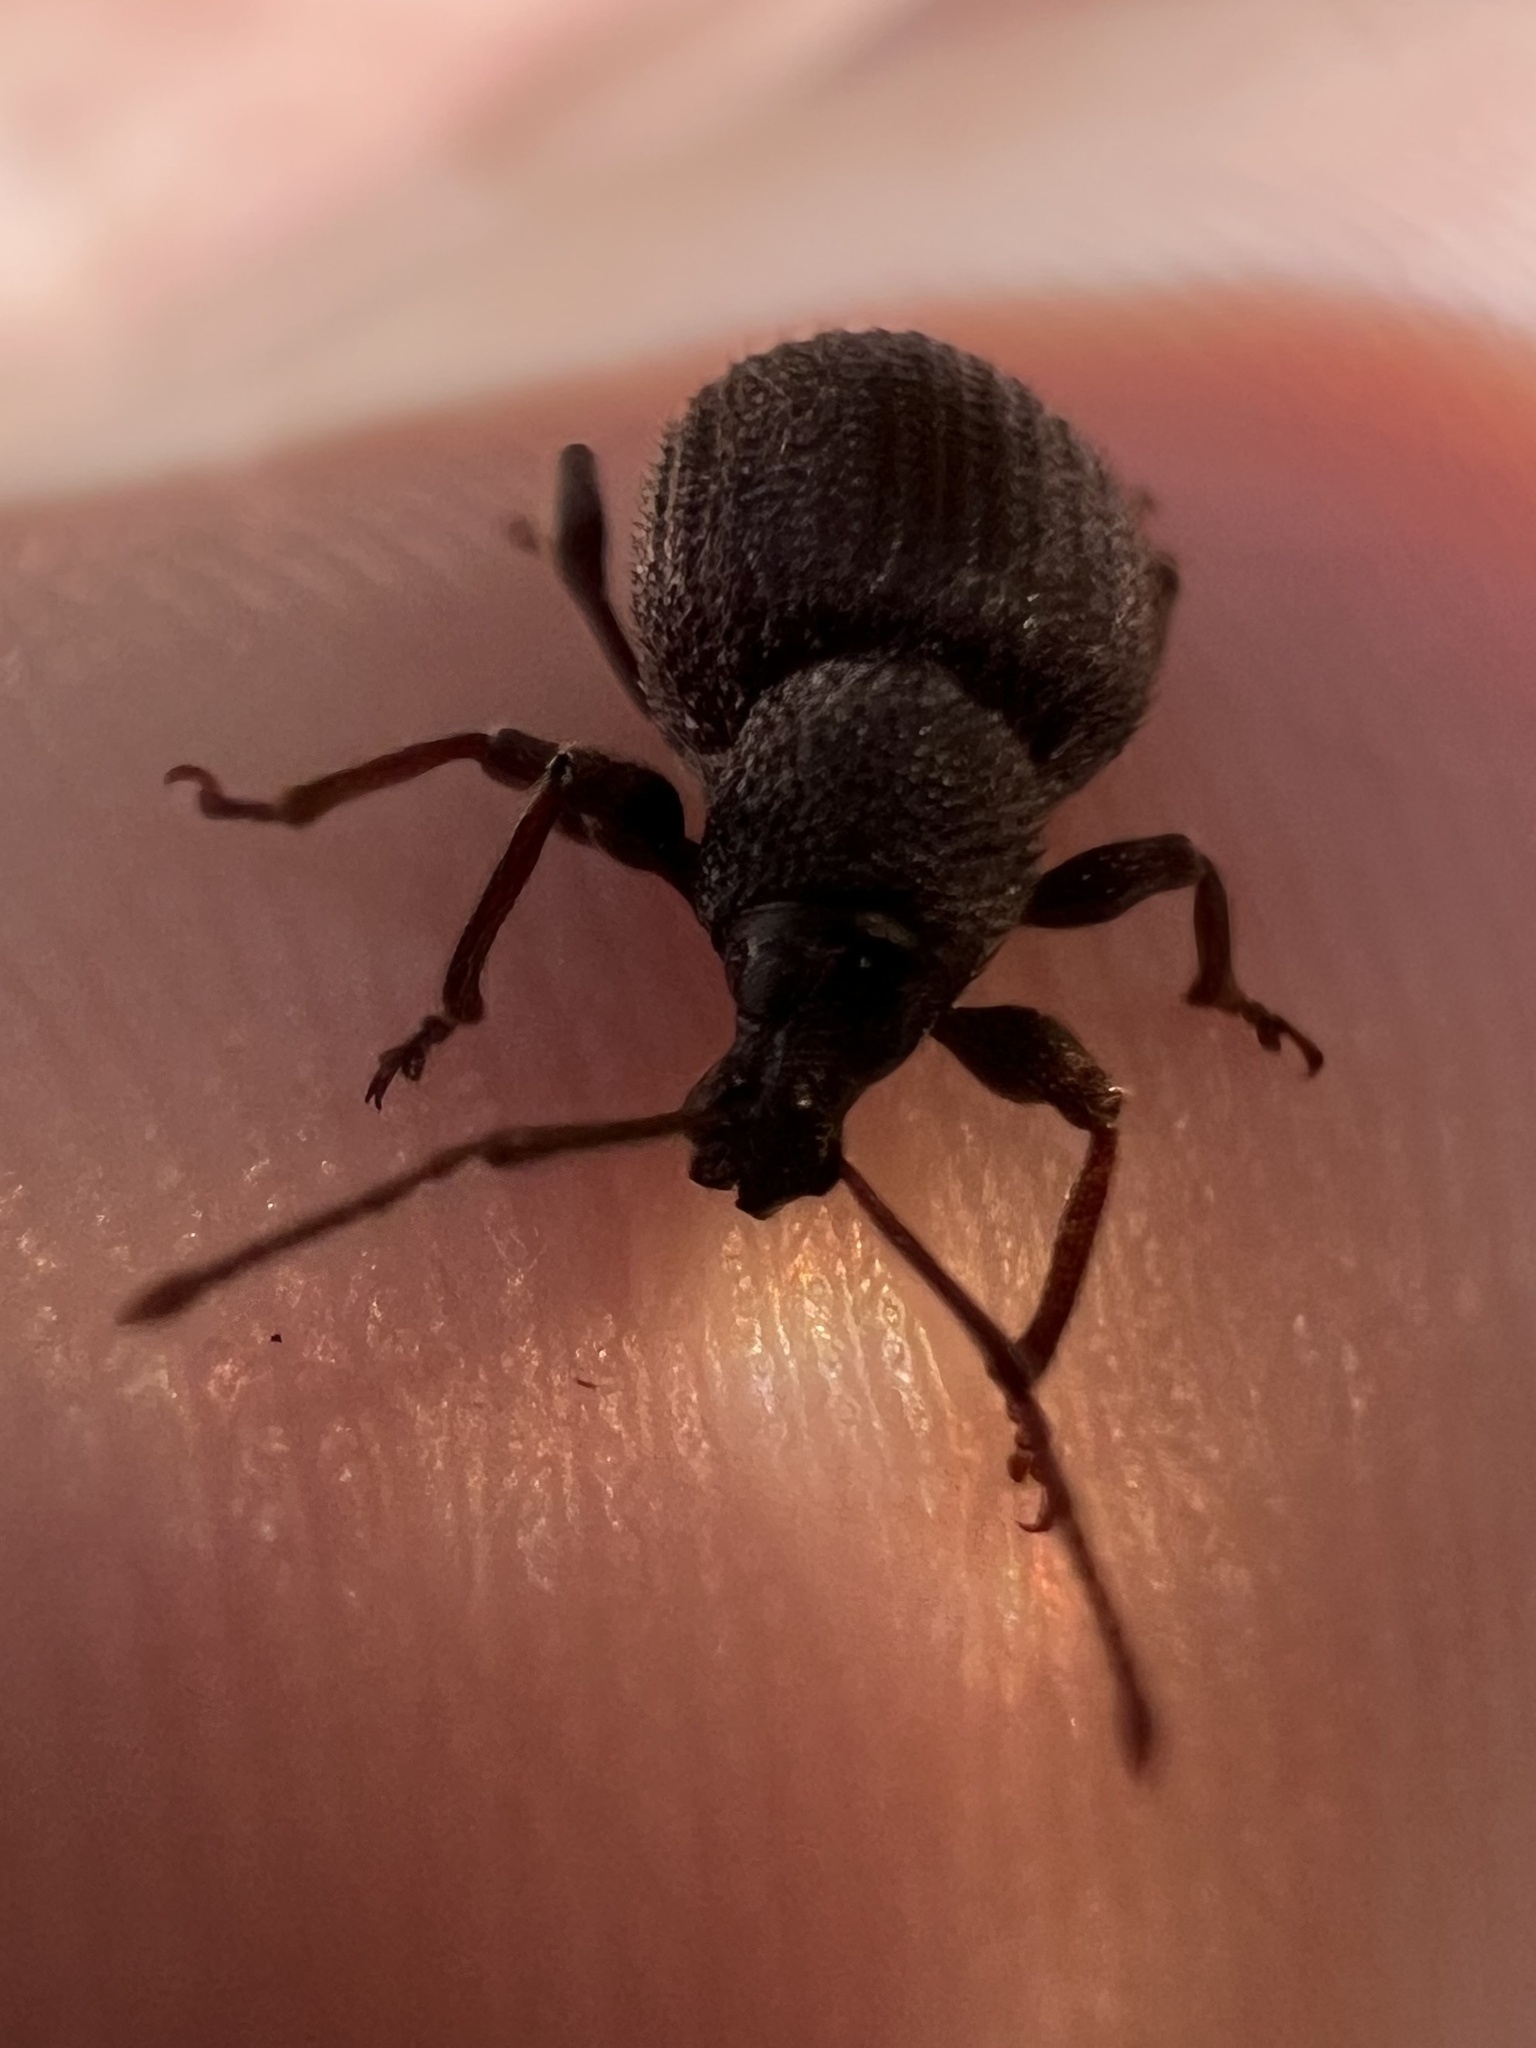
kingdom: Animalia
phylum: Arthropoda
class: Insecta
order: Coleoptera
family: Curculionidae
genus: Otiorhynchus
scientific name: Otiorhynchus rugosostriatus
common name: Weevil
